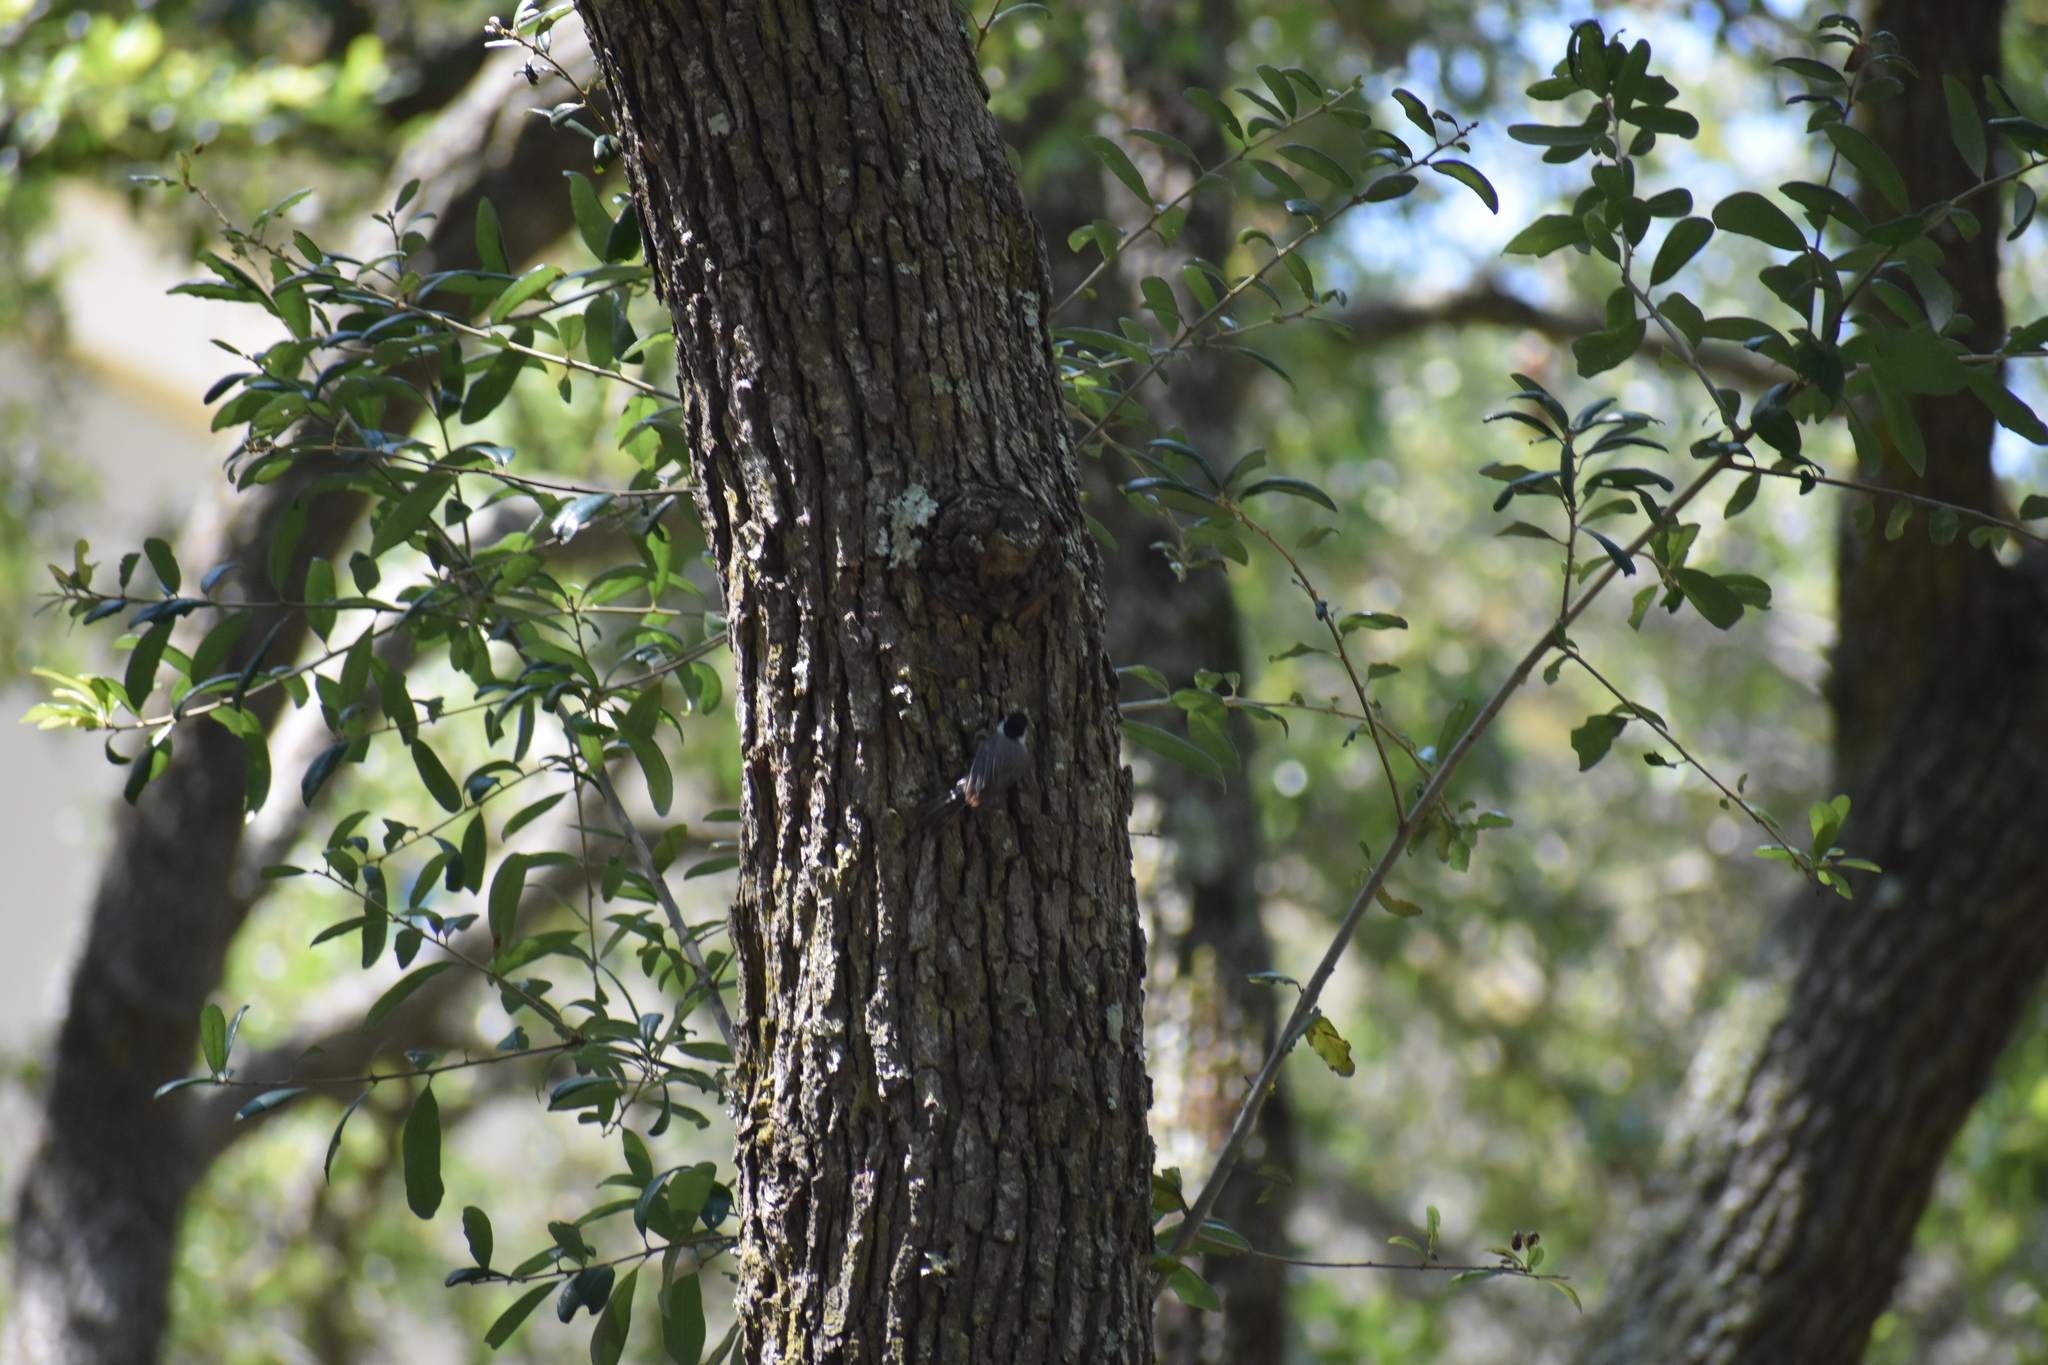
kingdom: Animalia
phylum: Chordata
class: Aves
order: Passeriformes
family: Paridae
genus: Poecile
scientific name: Poecile carolinensis
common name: Carolina chickadee
